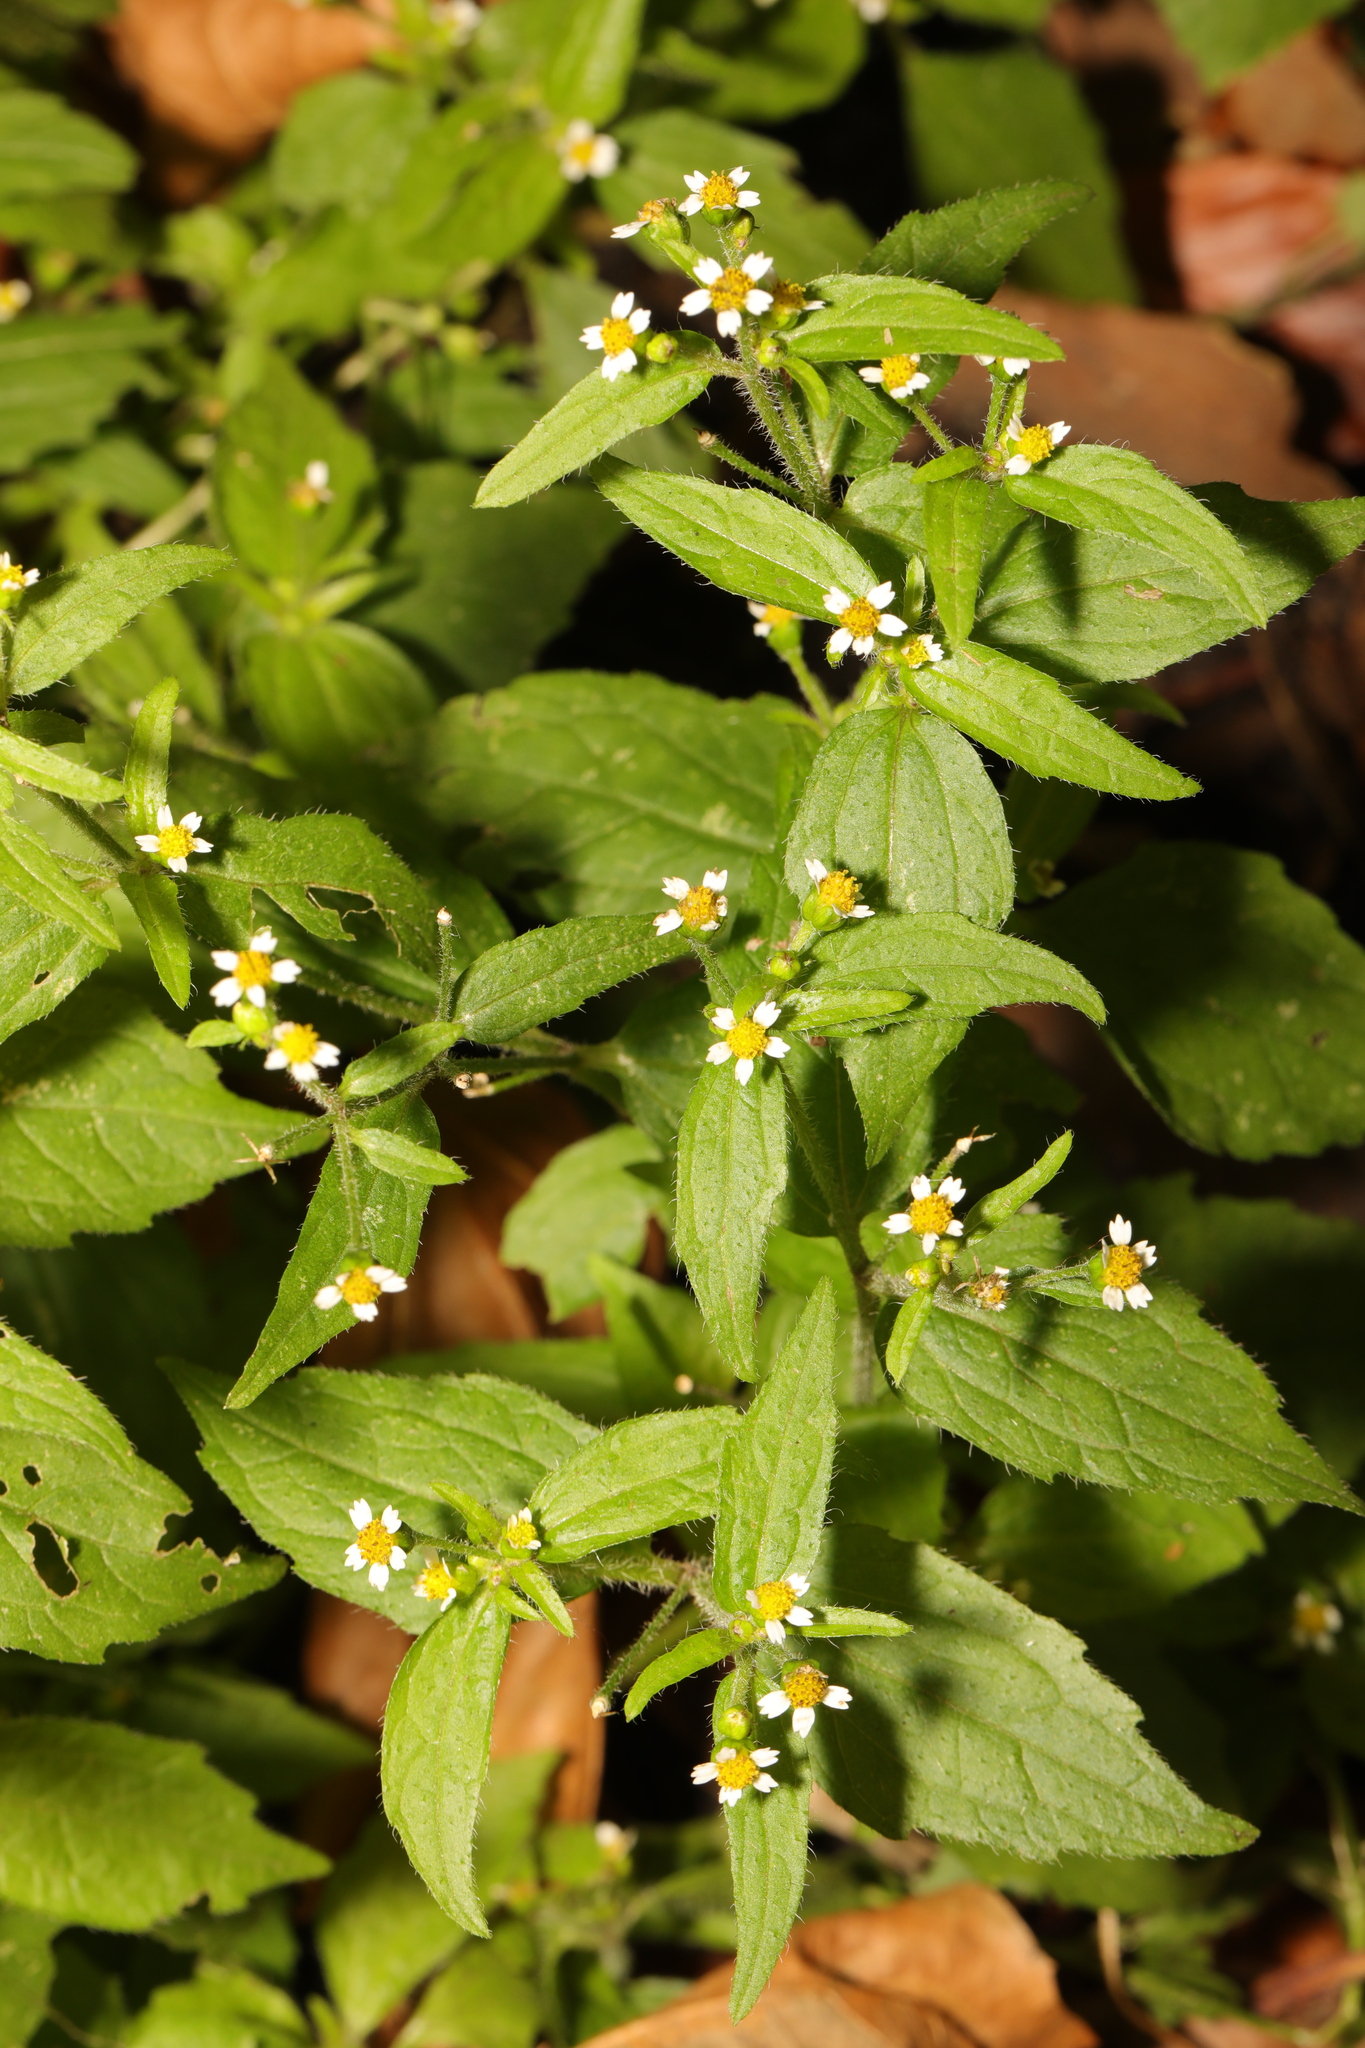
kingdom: Plantae
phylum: Tracheophyta
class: Magnoliopsida
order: Asterales
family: Asteraceae
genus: Galinsoga
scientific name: Galinsoga quadriradiata
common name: Shaggy soldier
